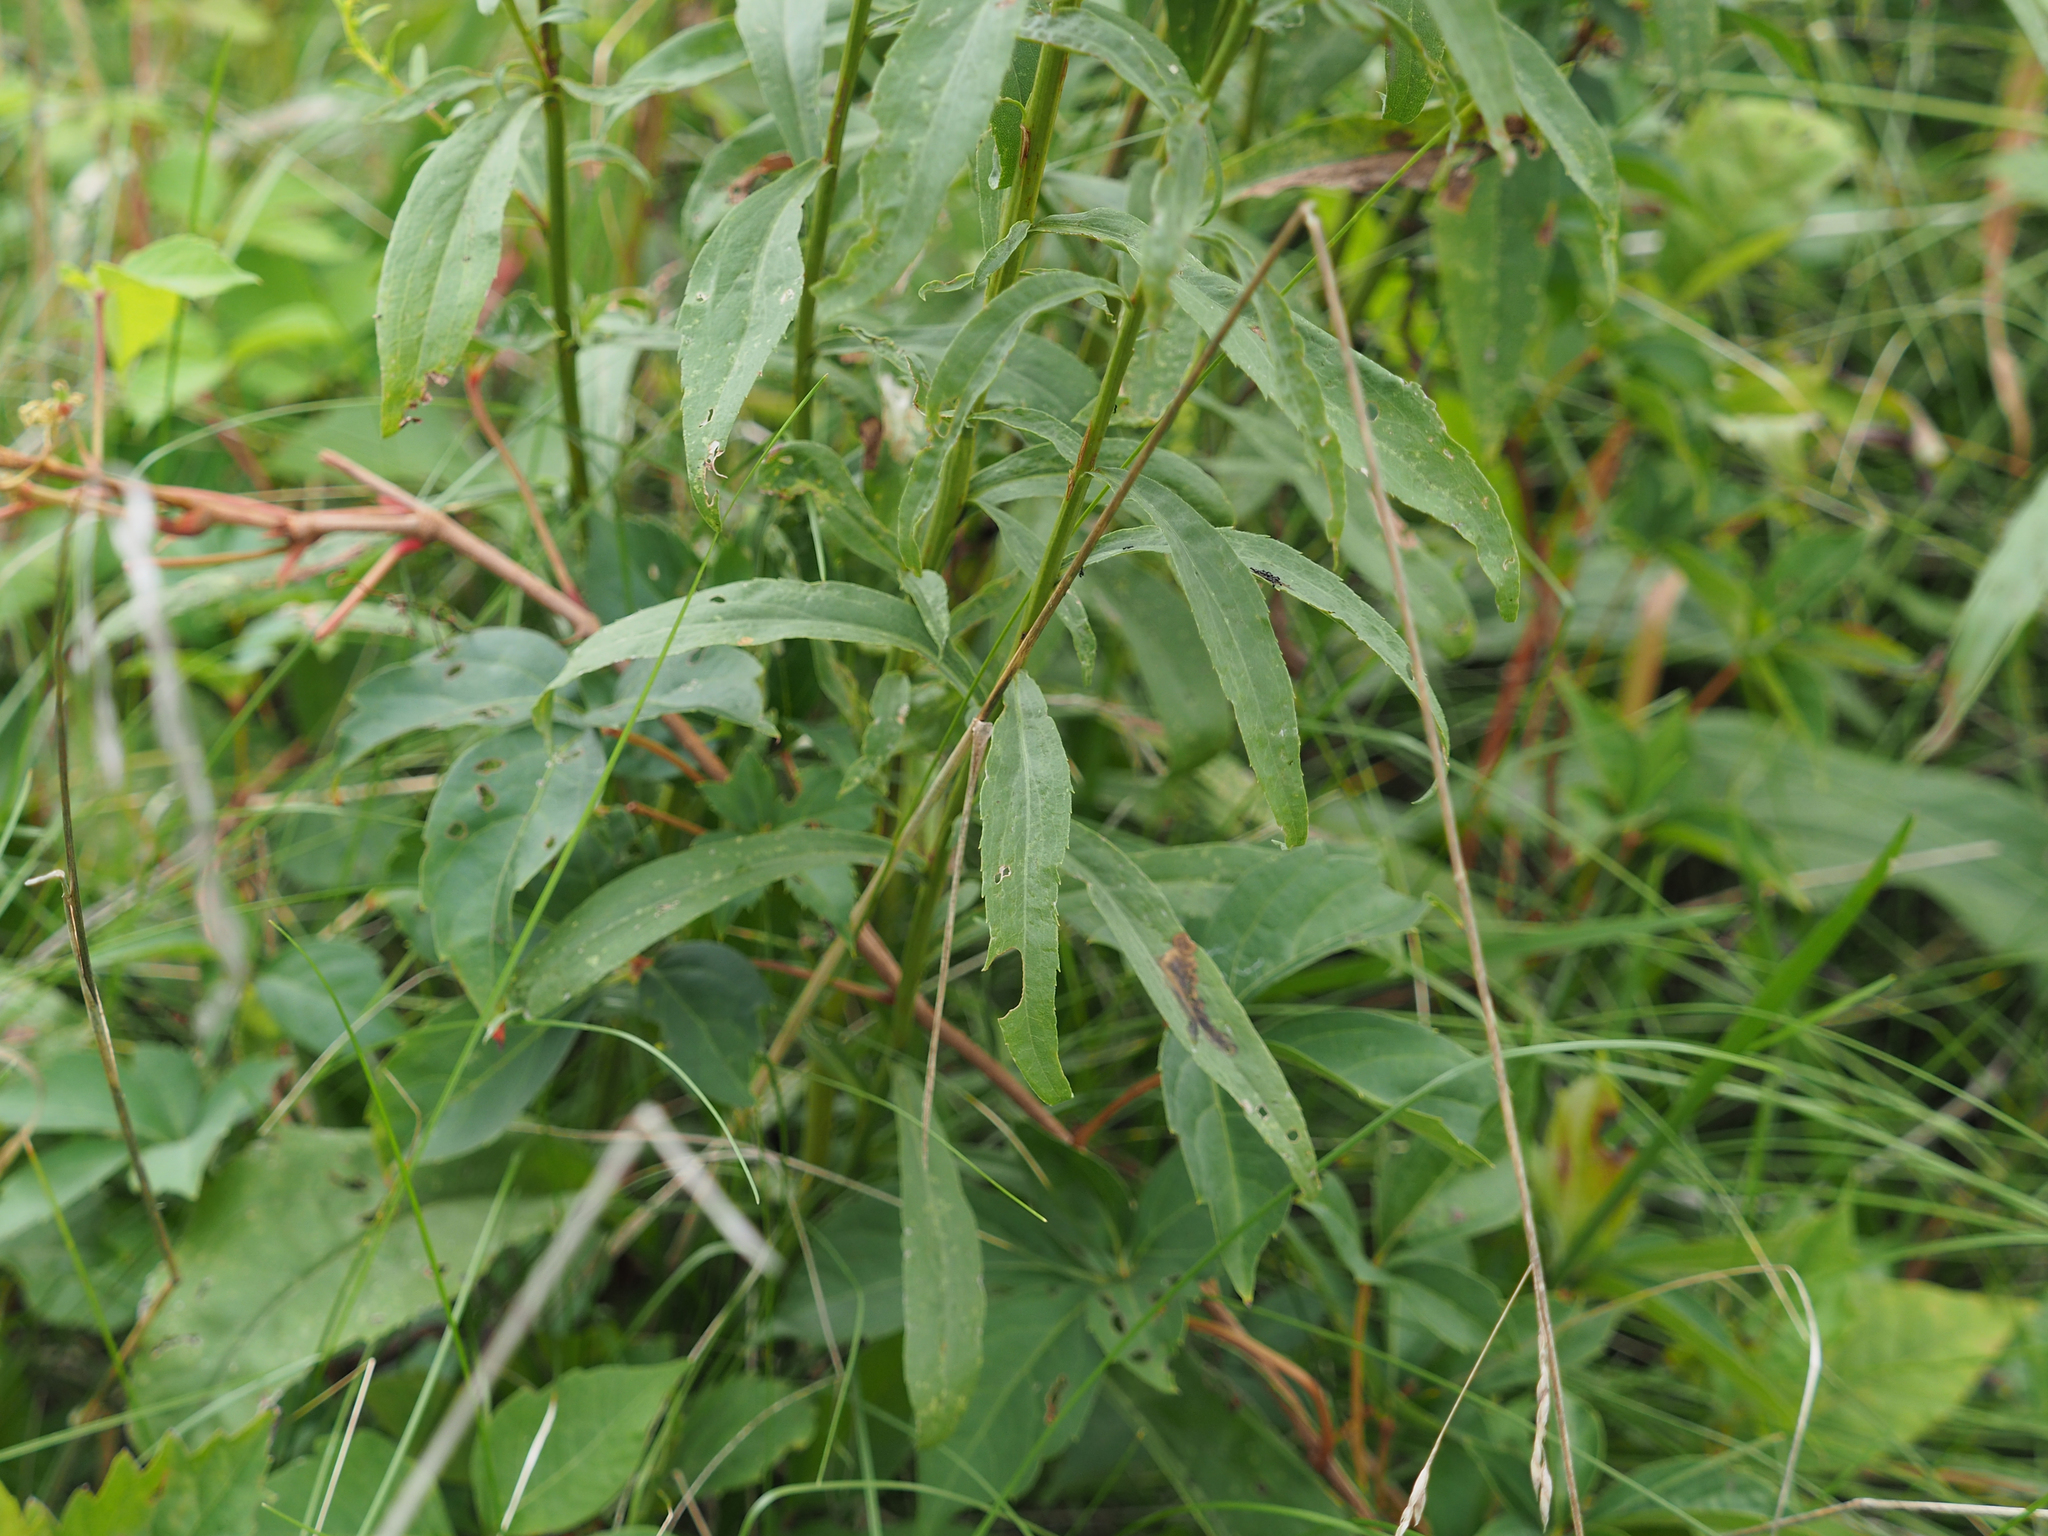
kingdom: Plantae
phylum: Tracheophyta
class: Magnoliopsida
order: Asterales
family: Asteraceae
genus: Solidago
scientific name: Solidago juncea
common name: Early goldenrod
